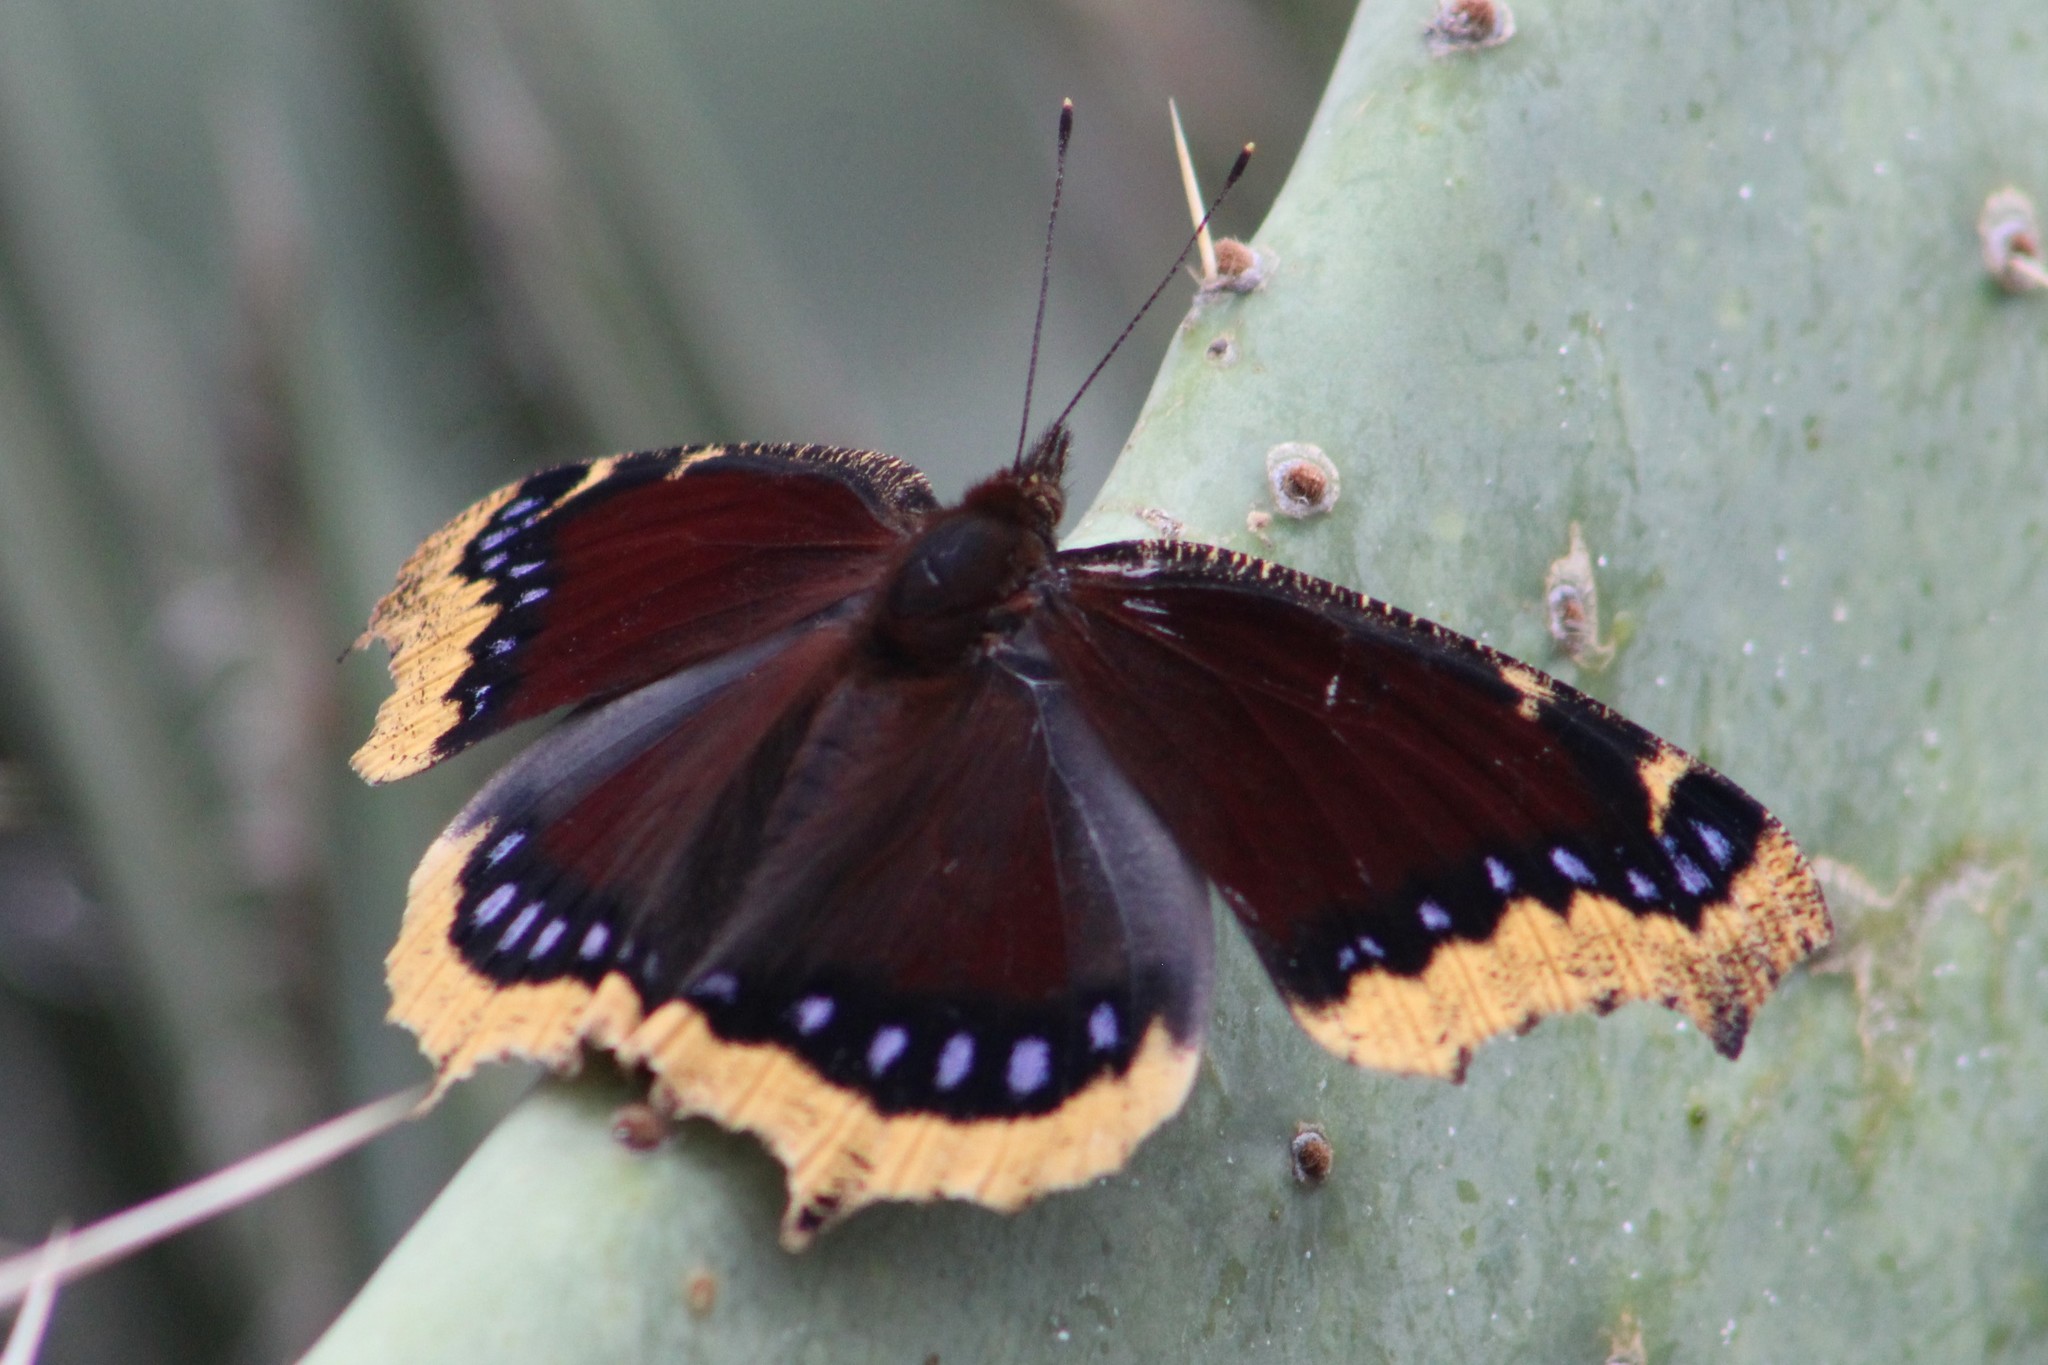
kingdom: Animalia
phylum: Arthropoda
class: Insecta
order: Lepidoptera
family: Nymphalidae
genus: Nymphalis
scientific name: Nymphalis antiopa
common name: Camberwell beauty
